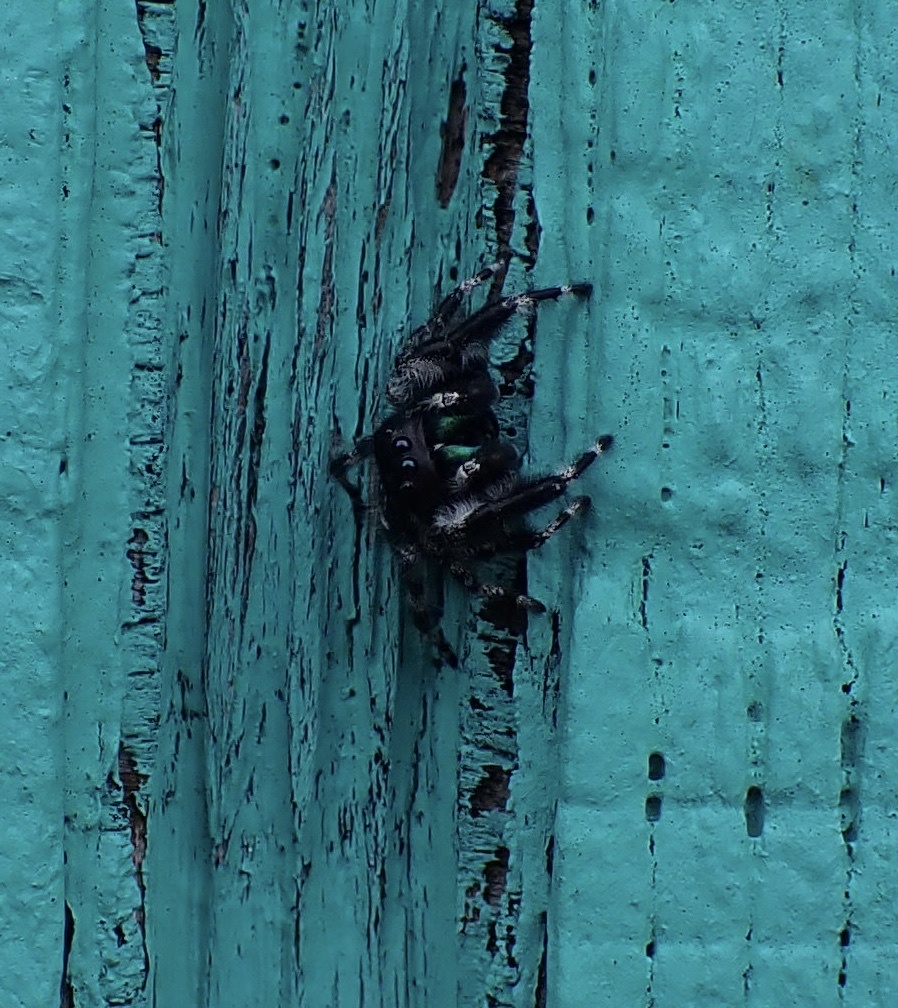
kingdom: Animalia
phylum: Arthropoda
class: Arachnida
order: Araneae
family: Salticidae
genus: Phidippus
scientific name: Phidippus audax
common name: Bold jumper
